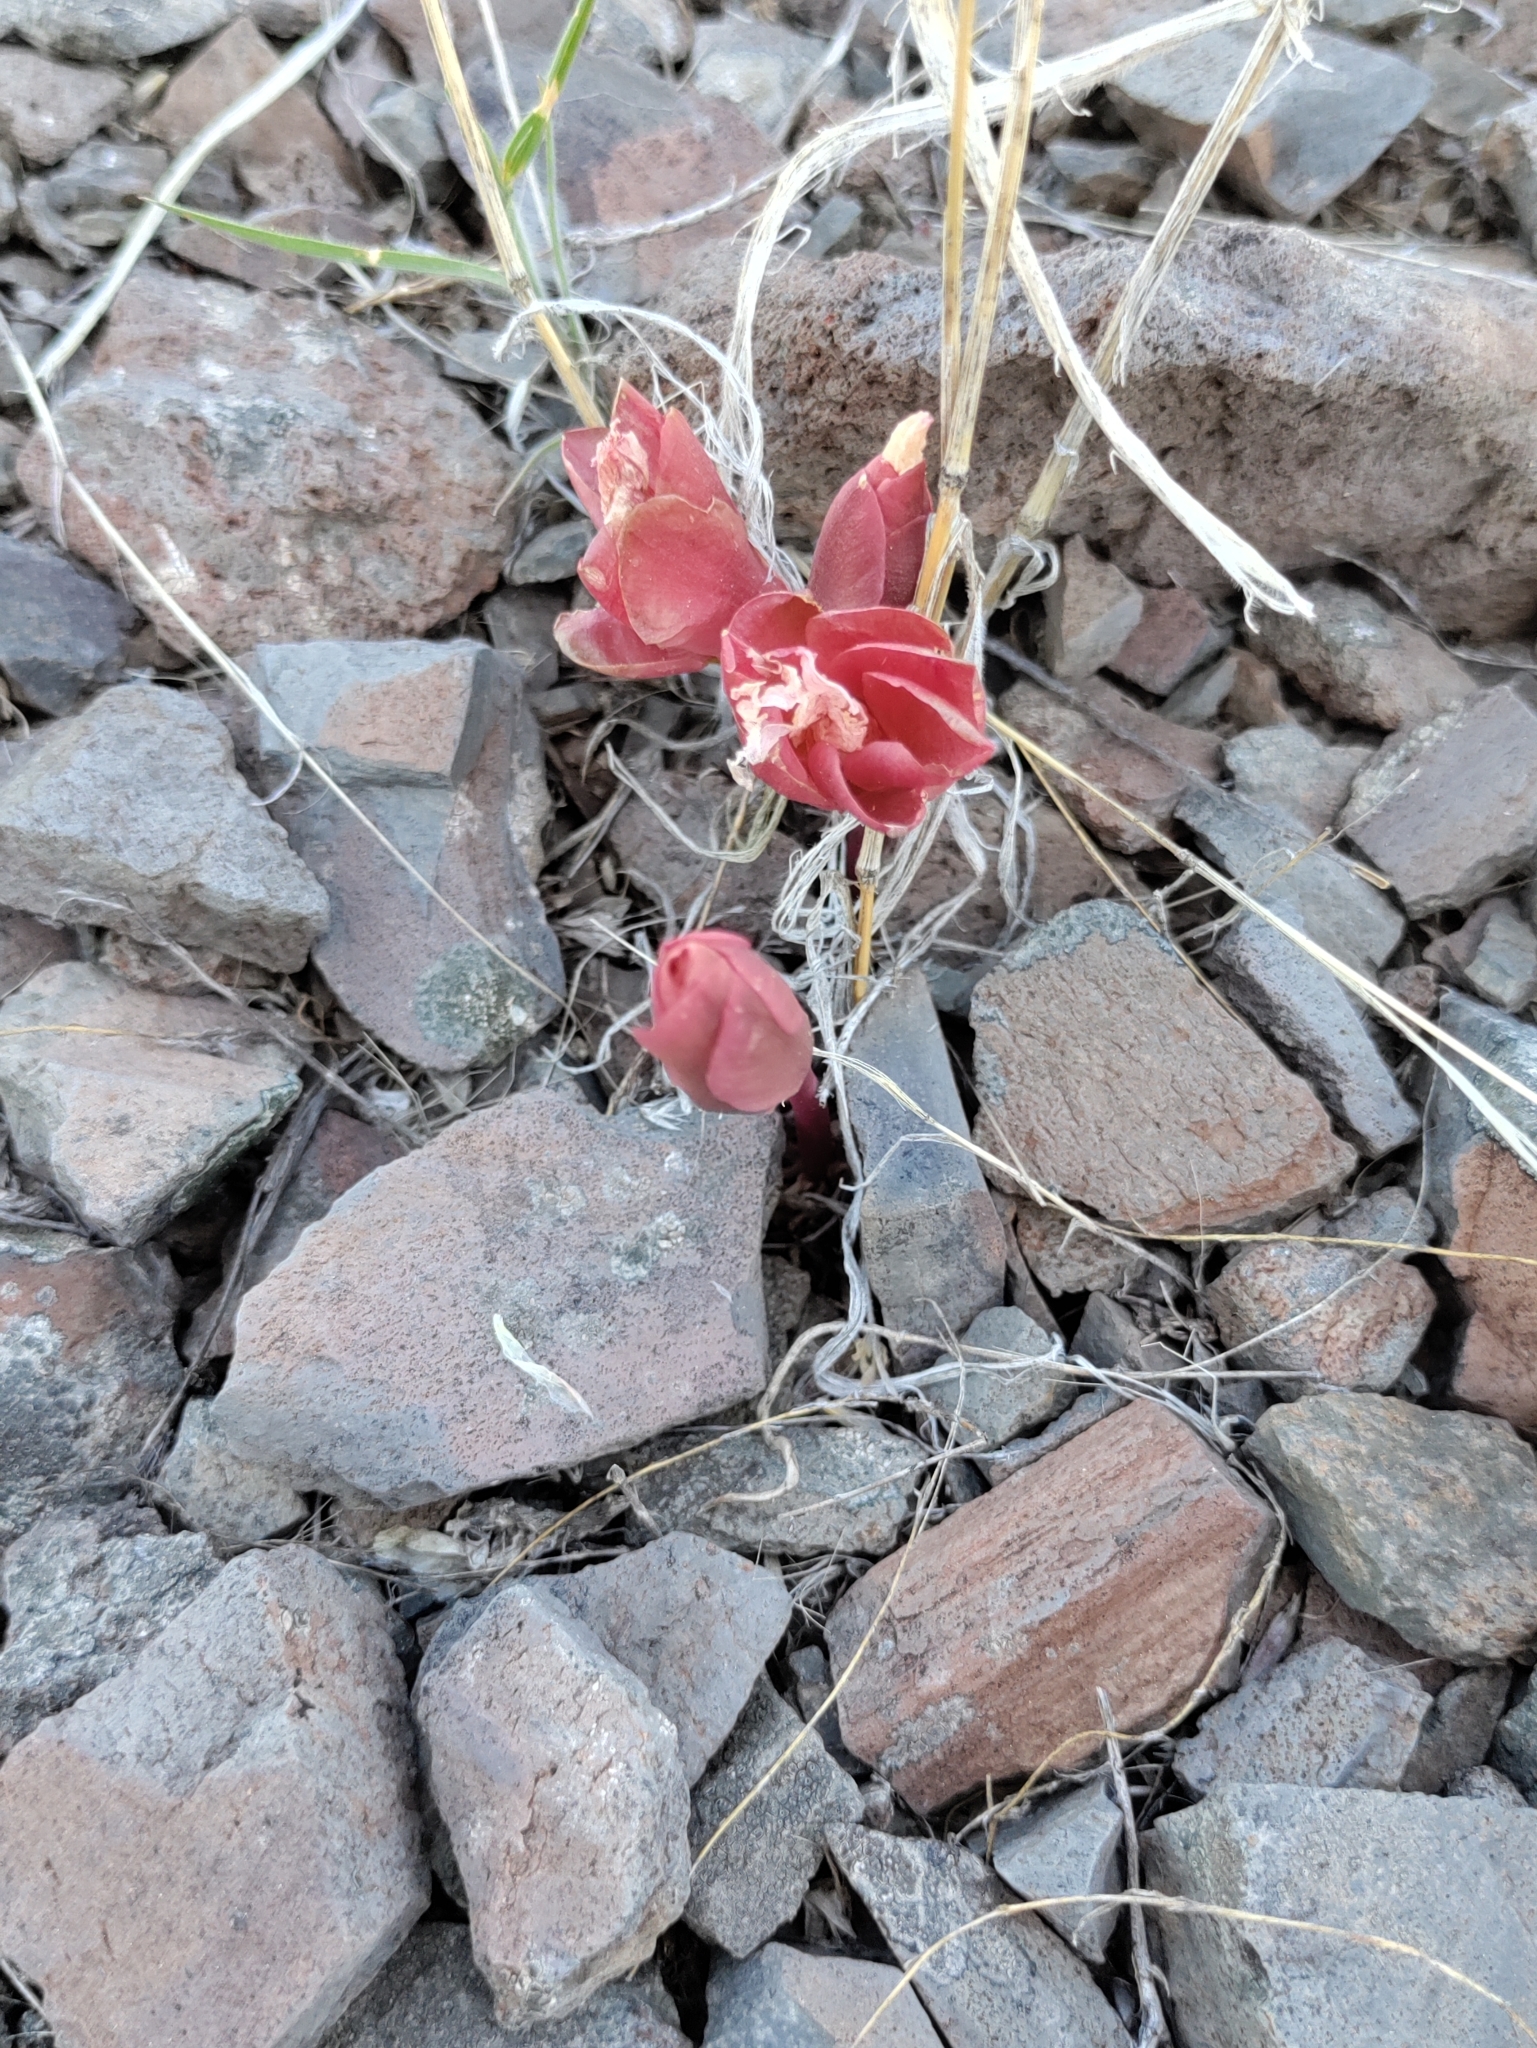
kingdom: Plantae
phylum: Tracheophyta
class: Magnoliopsida
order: Caryophyllales
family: Montiaceae
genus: Lewisia
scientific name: Lewisia rediviva
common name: Bitter-root
